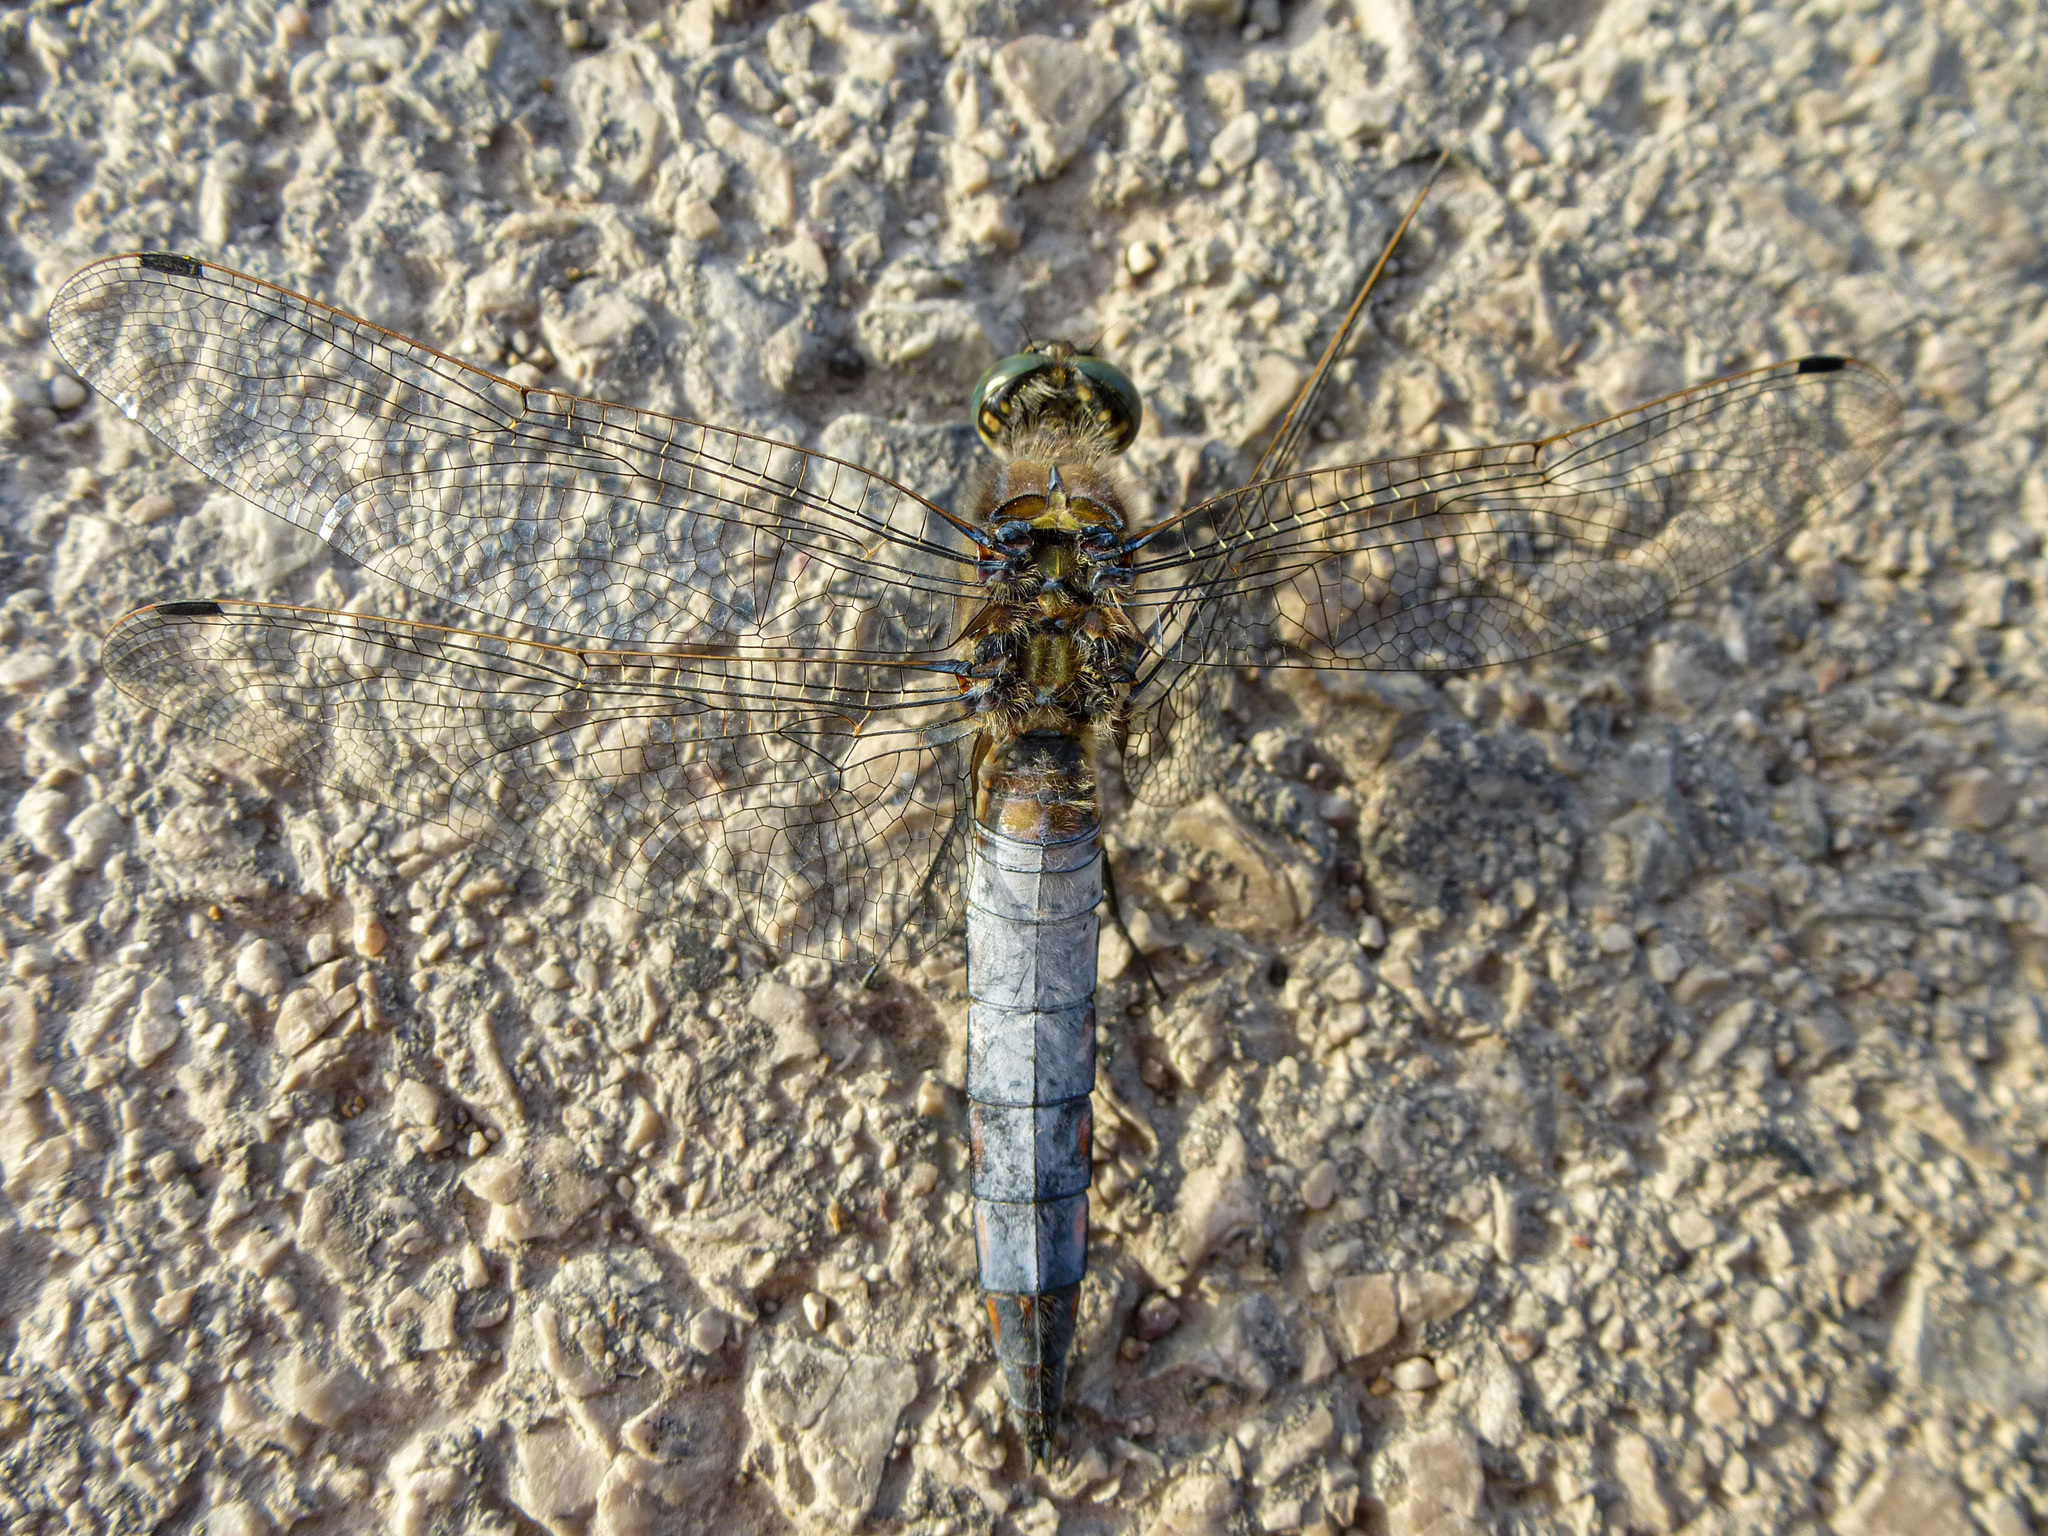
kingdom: Animalia
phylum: Arthropoda
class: Insecta
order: Odonata
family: Libellulidae
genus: Orthetrum
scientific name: Orthetrum cancellatum
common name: Black-tailed skimmer
